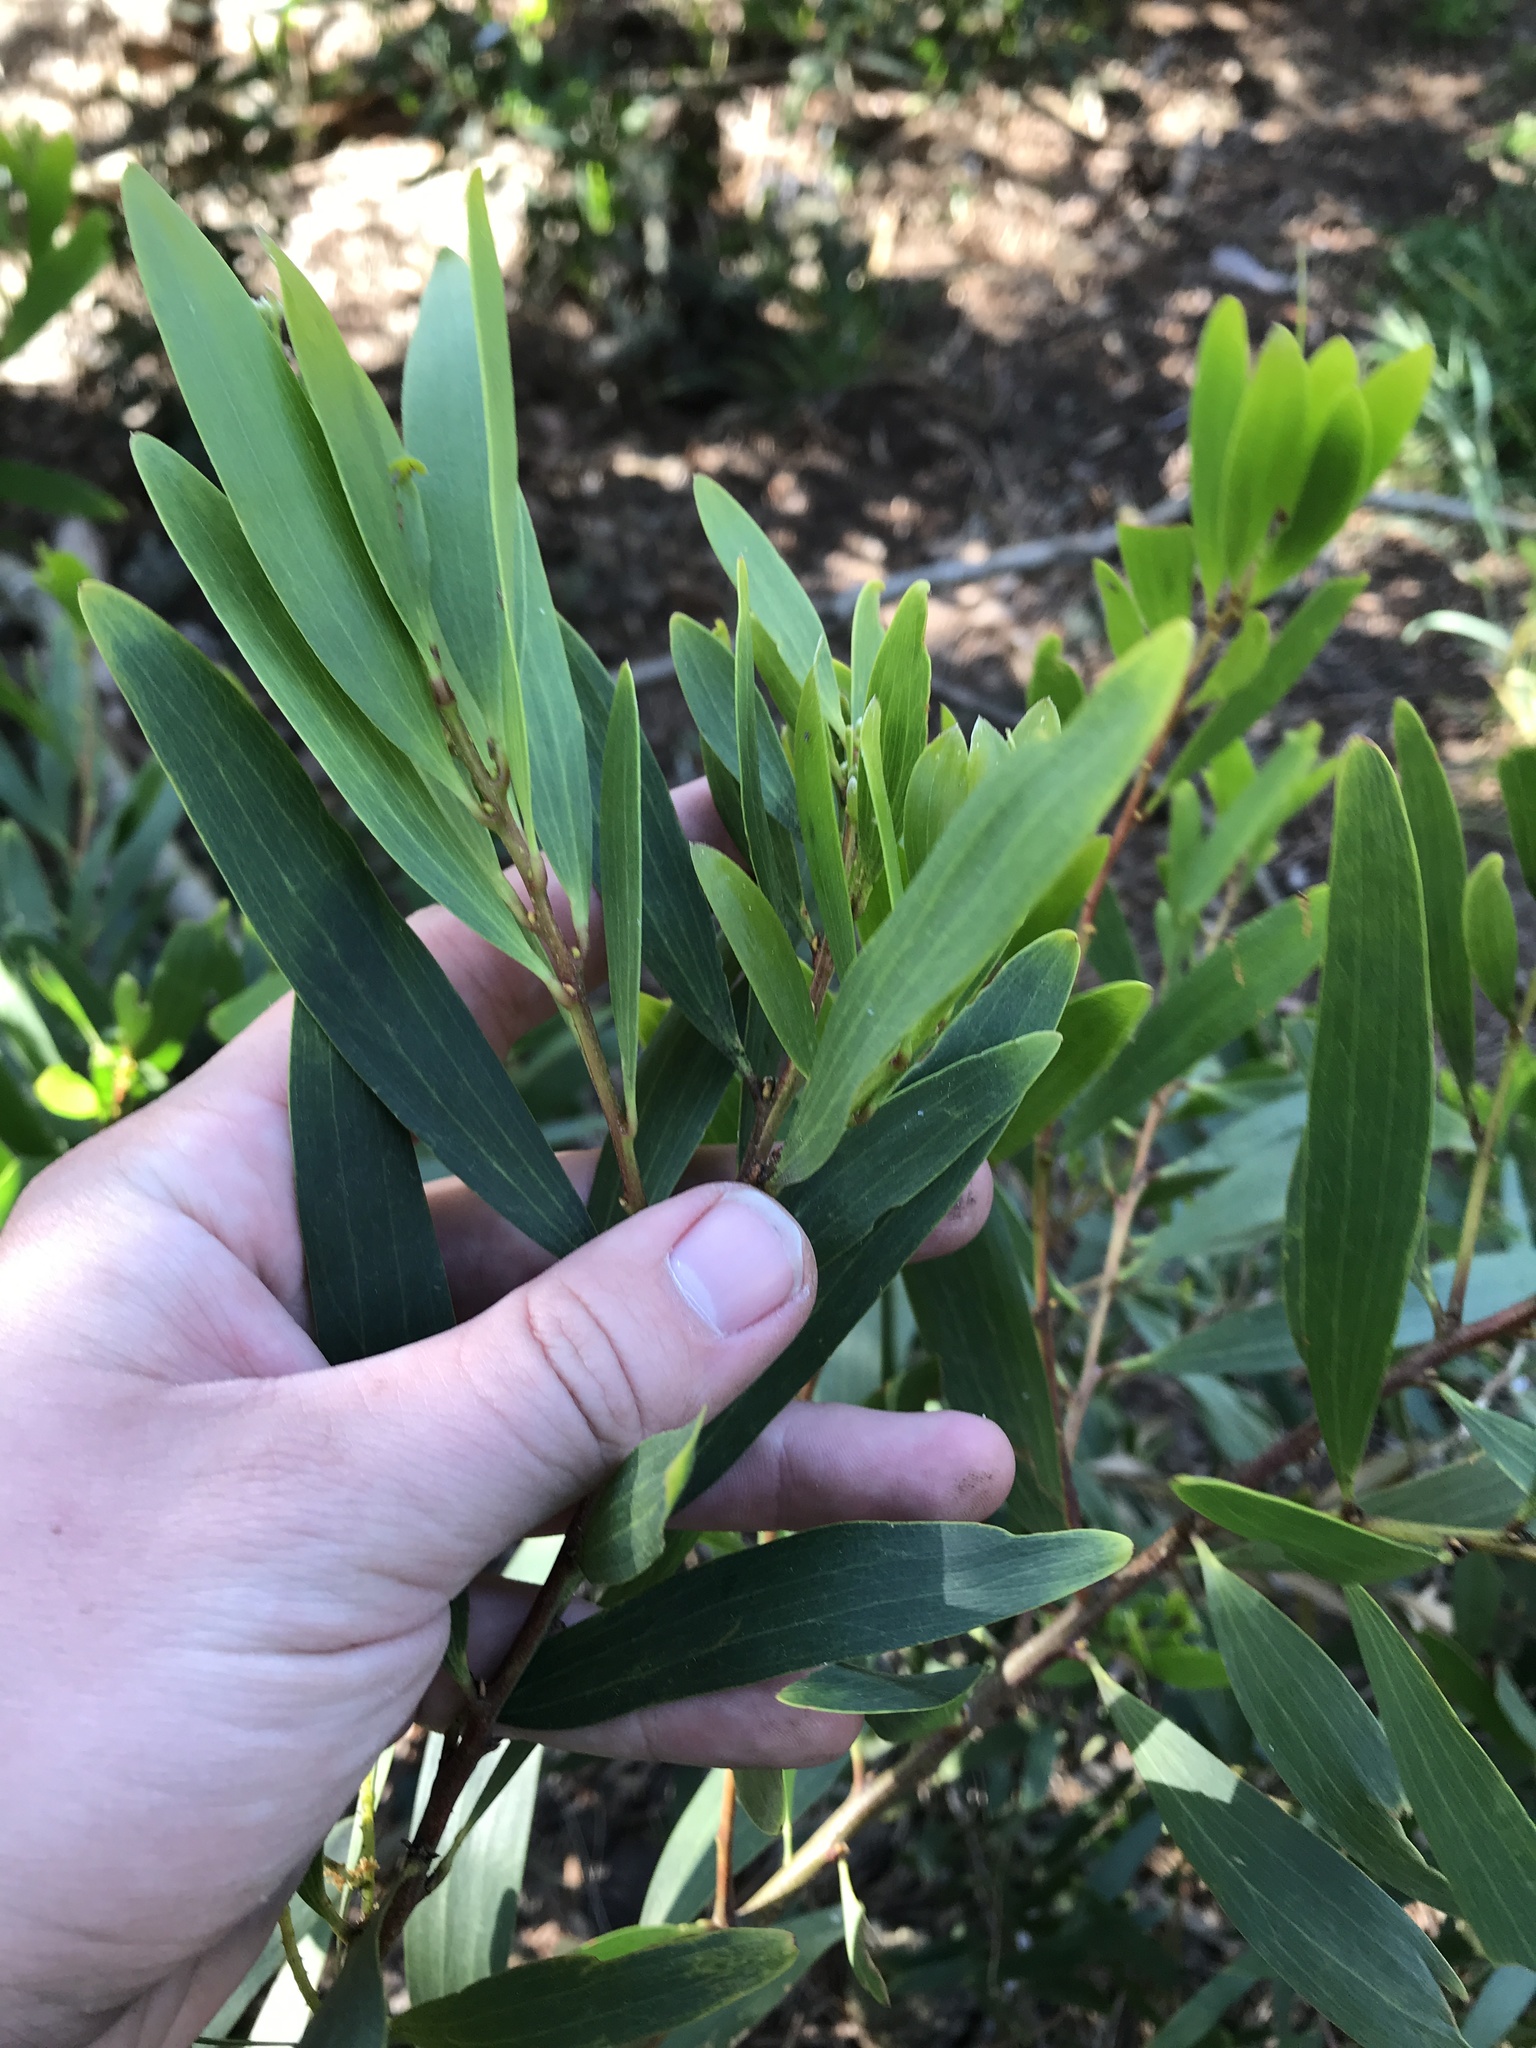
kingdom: Plantae
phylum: Tracheophyta
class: Magnoliopsida
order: Fabales
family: Fabaceae
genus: Acacia
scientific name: Acacia longifolia
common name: Sydney golden wattle
